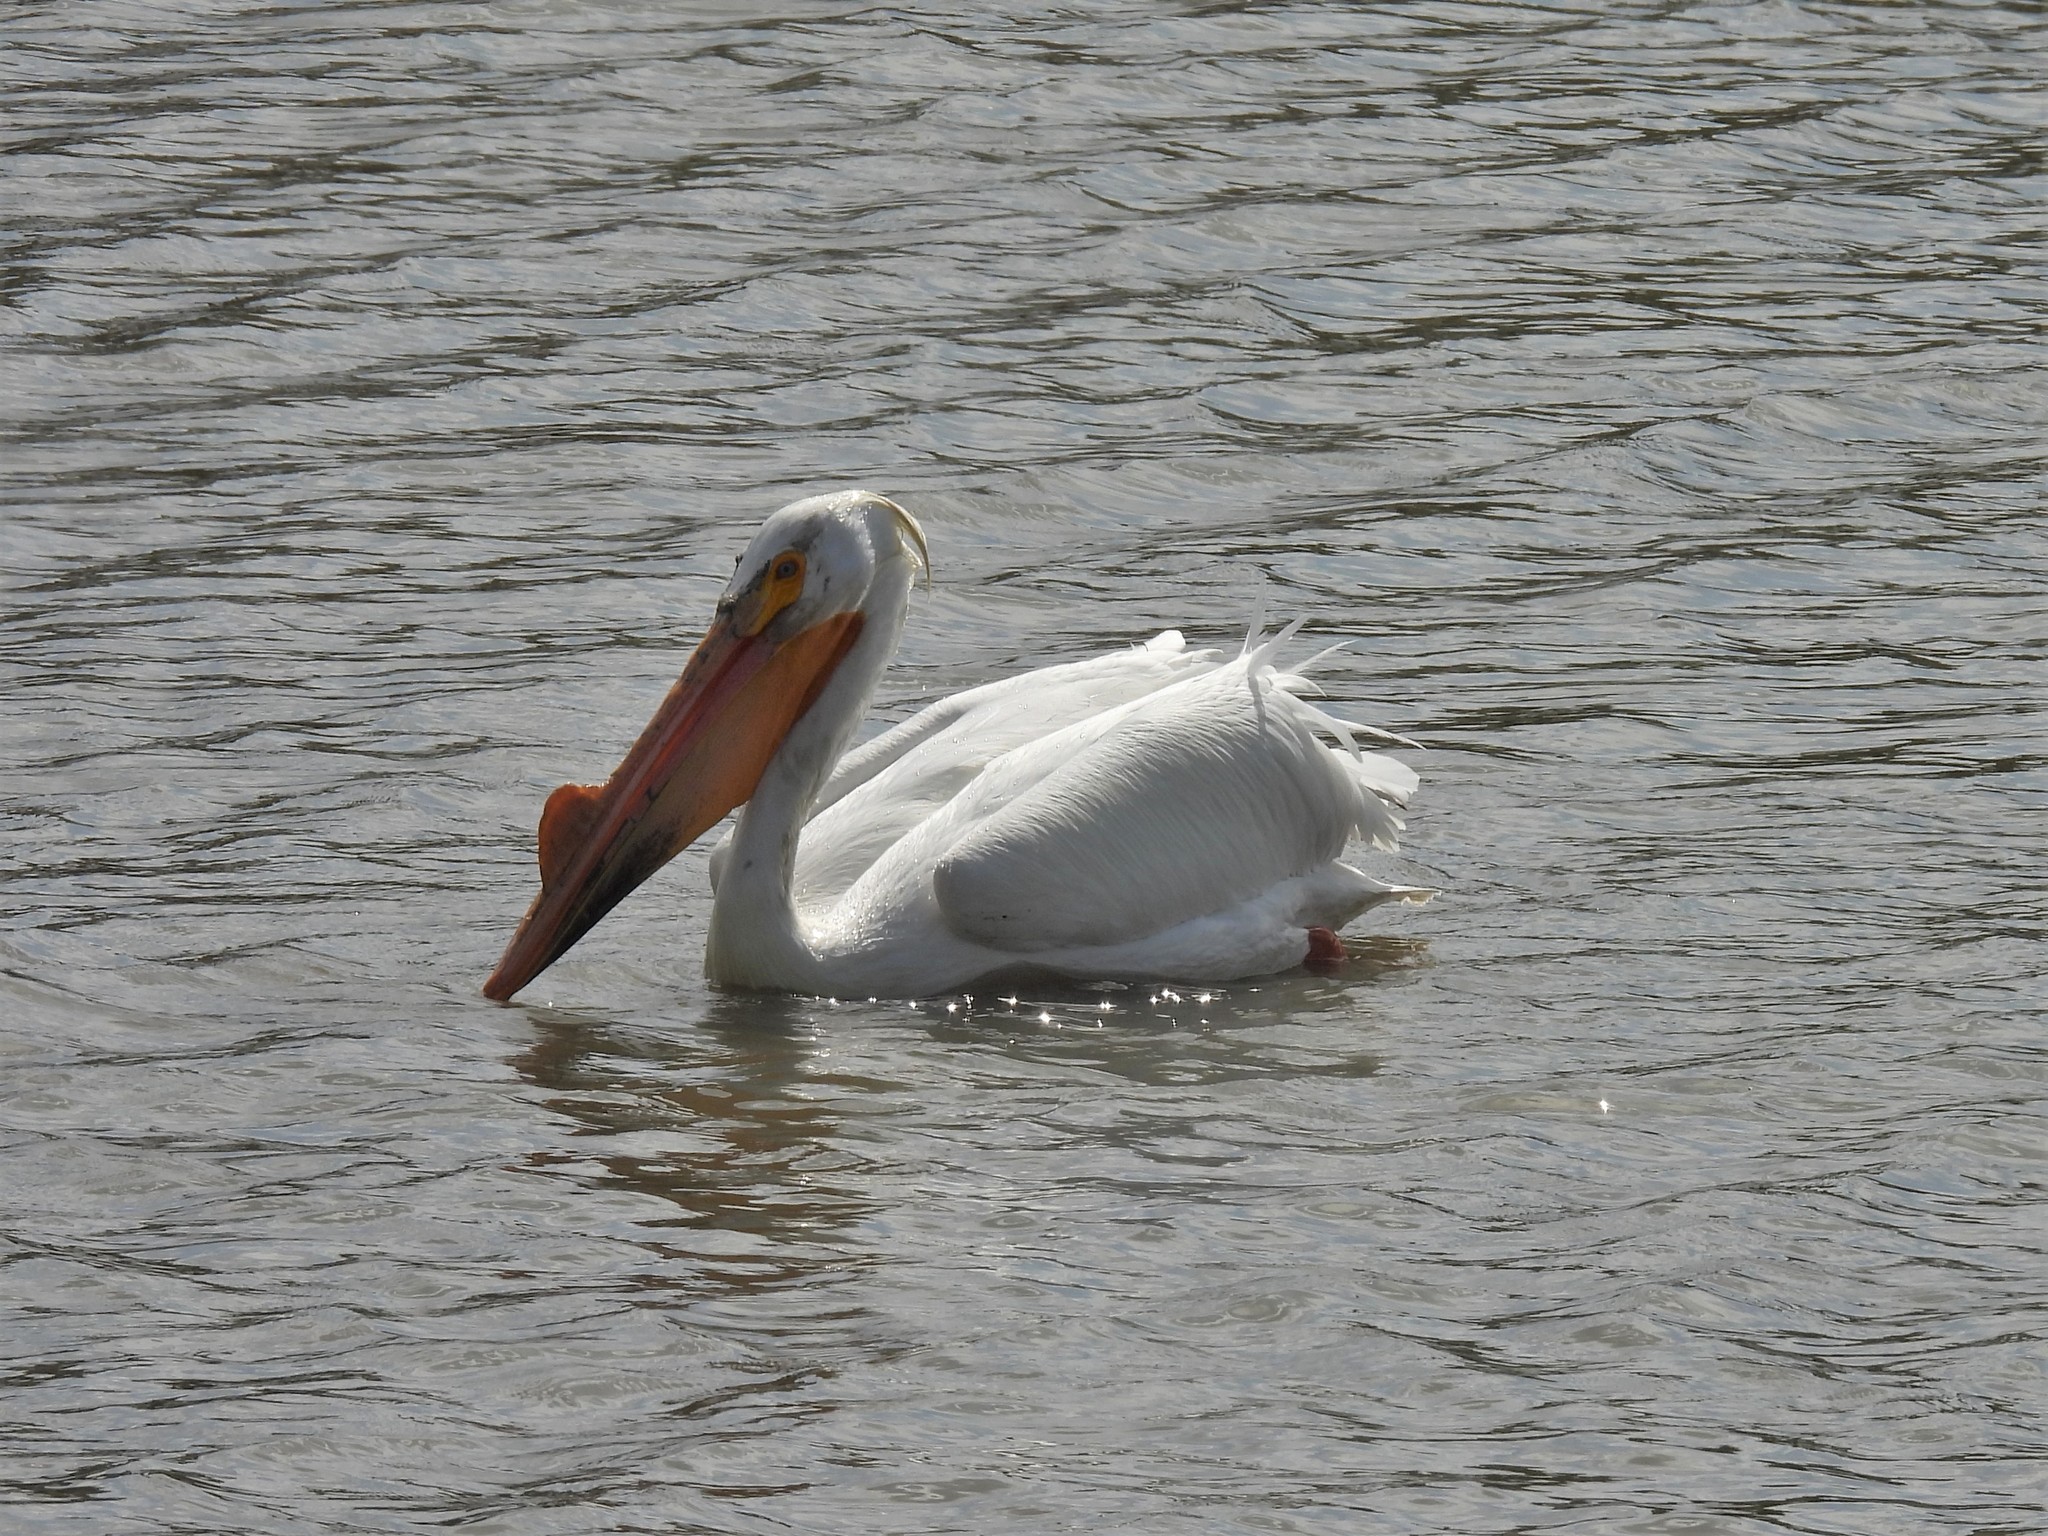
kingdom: Animalia
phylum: Chordata
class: Aves
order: Pelecaniformes
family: Pelecanidae
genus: Pelecanus
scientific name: Pelecanus erythrorhynchos
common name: American white pelican
